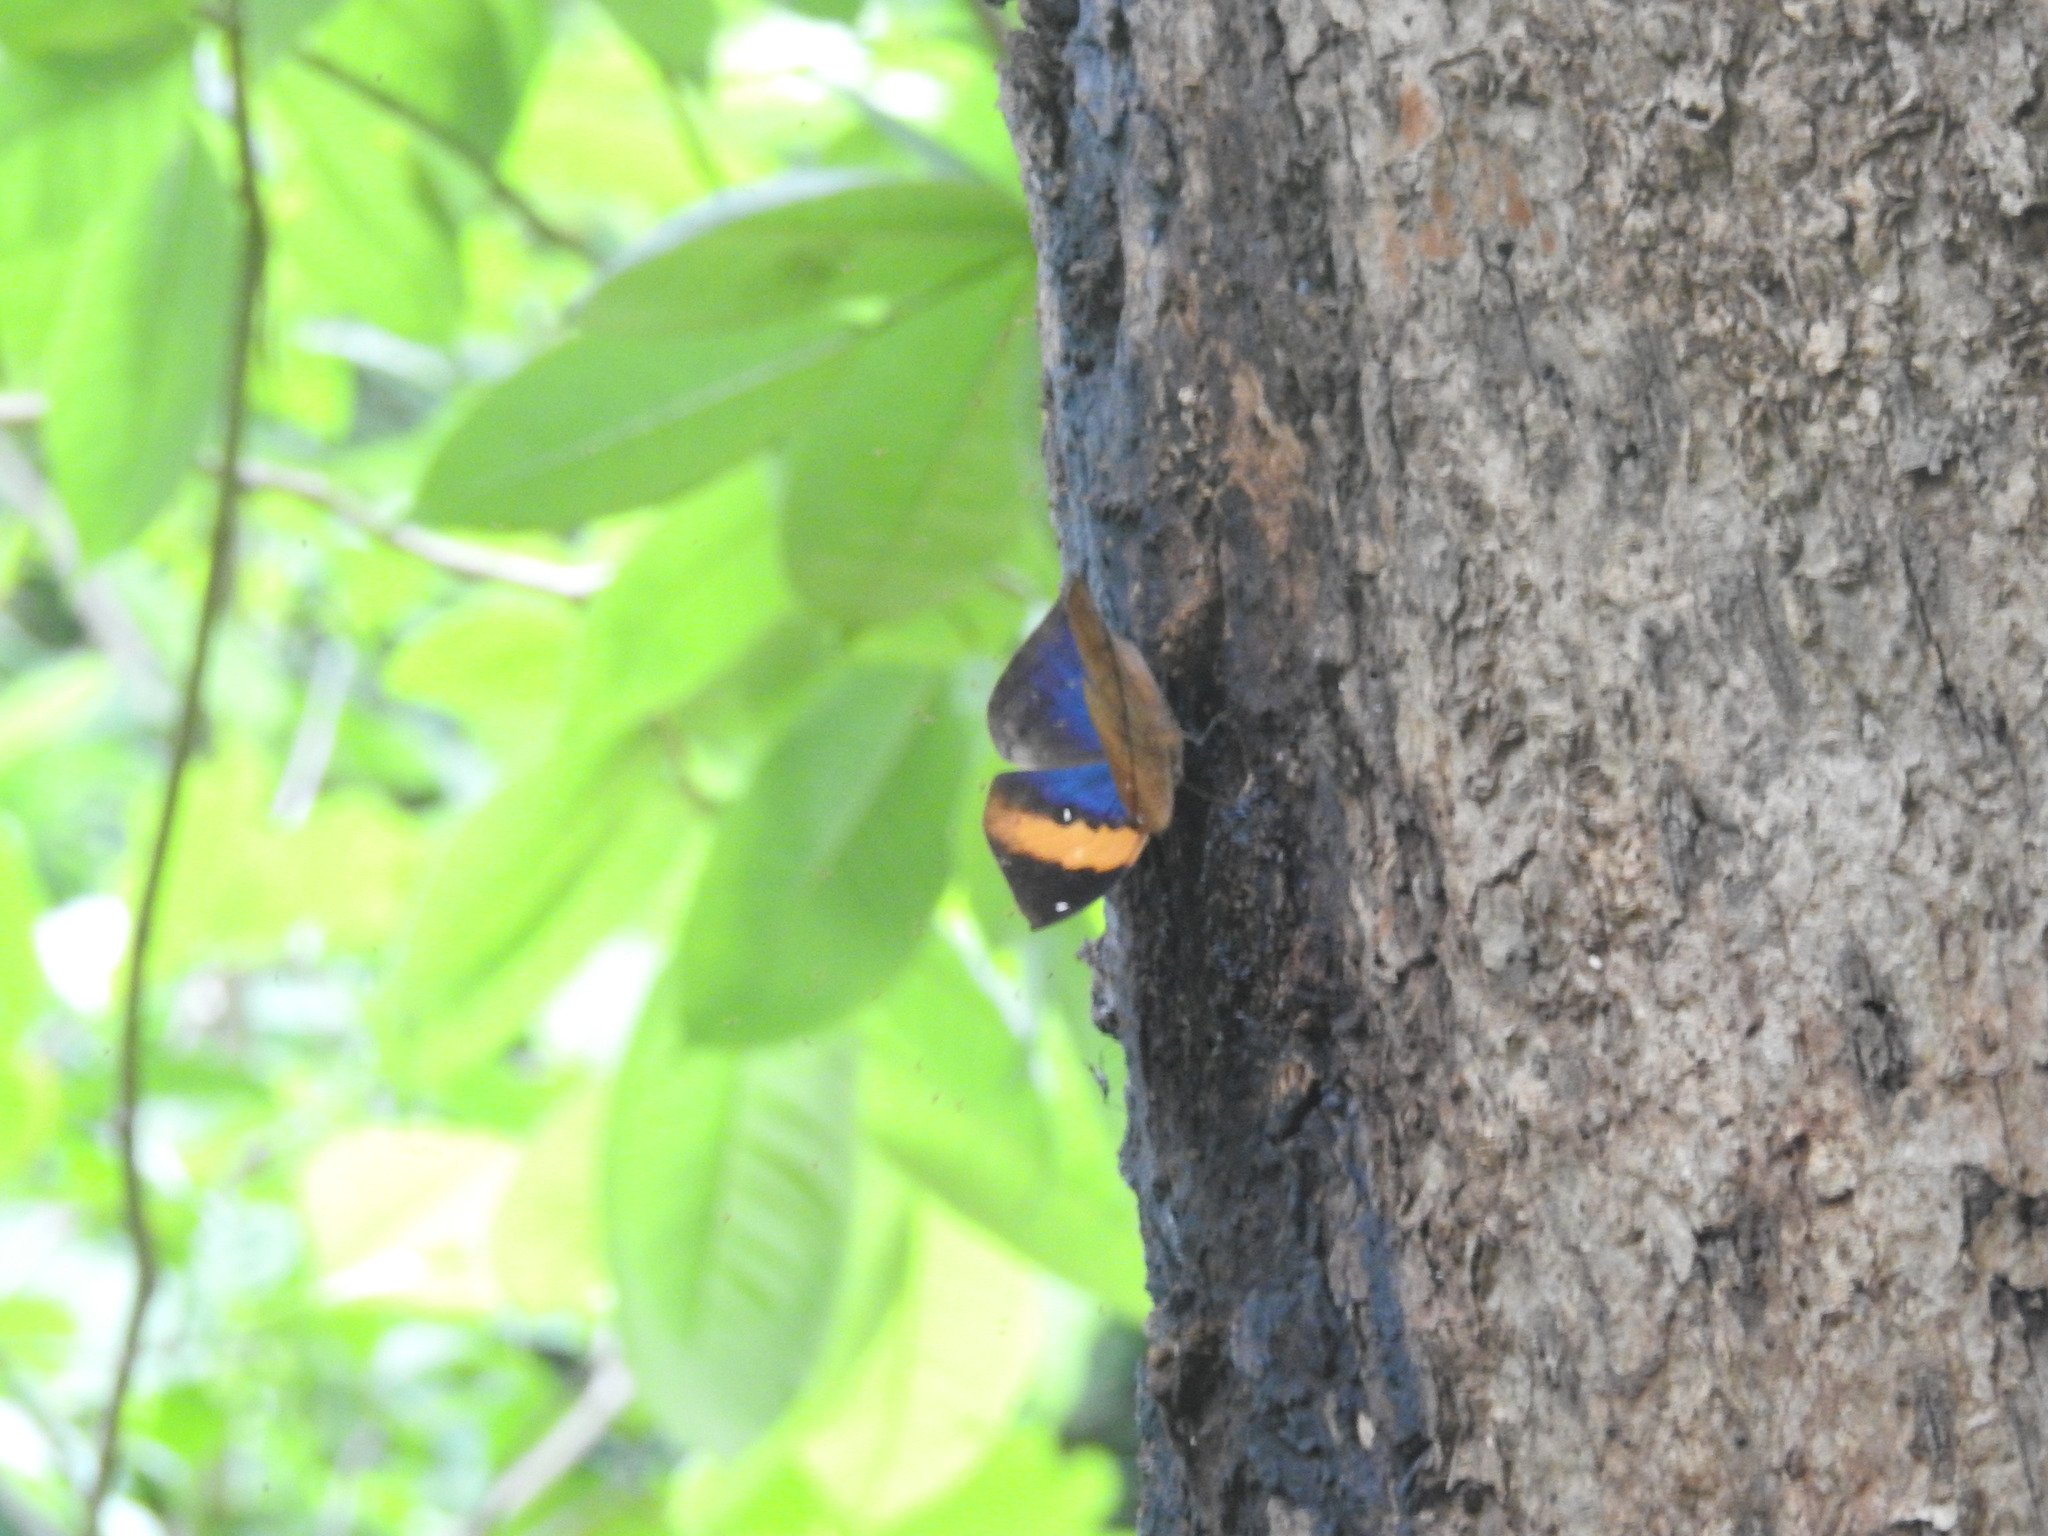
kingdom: Animalia
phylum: Arthropoda
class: Insecta
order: Lepidoptera
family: Nymphalidae
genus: Kallima
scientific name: Kallima inachus
